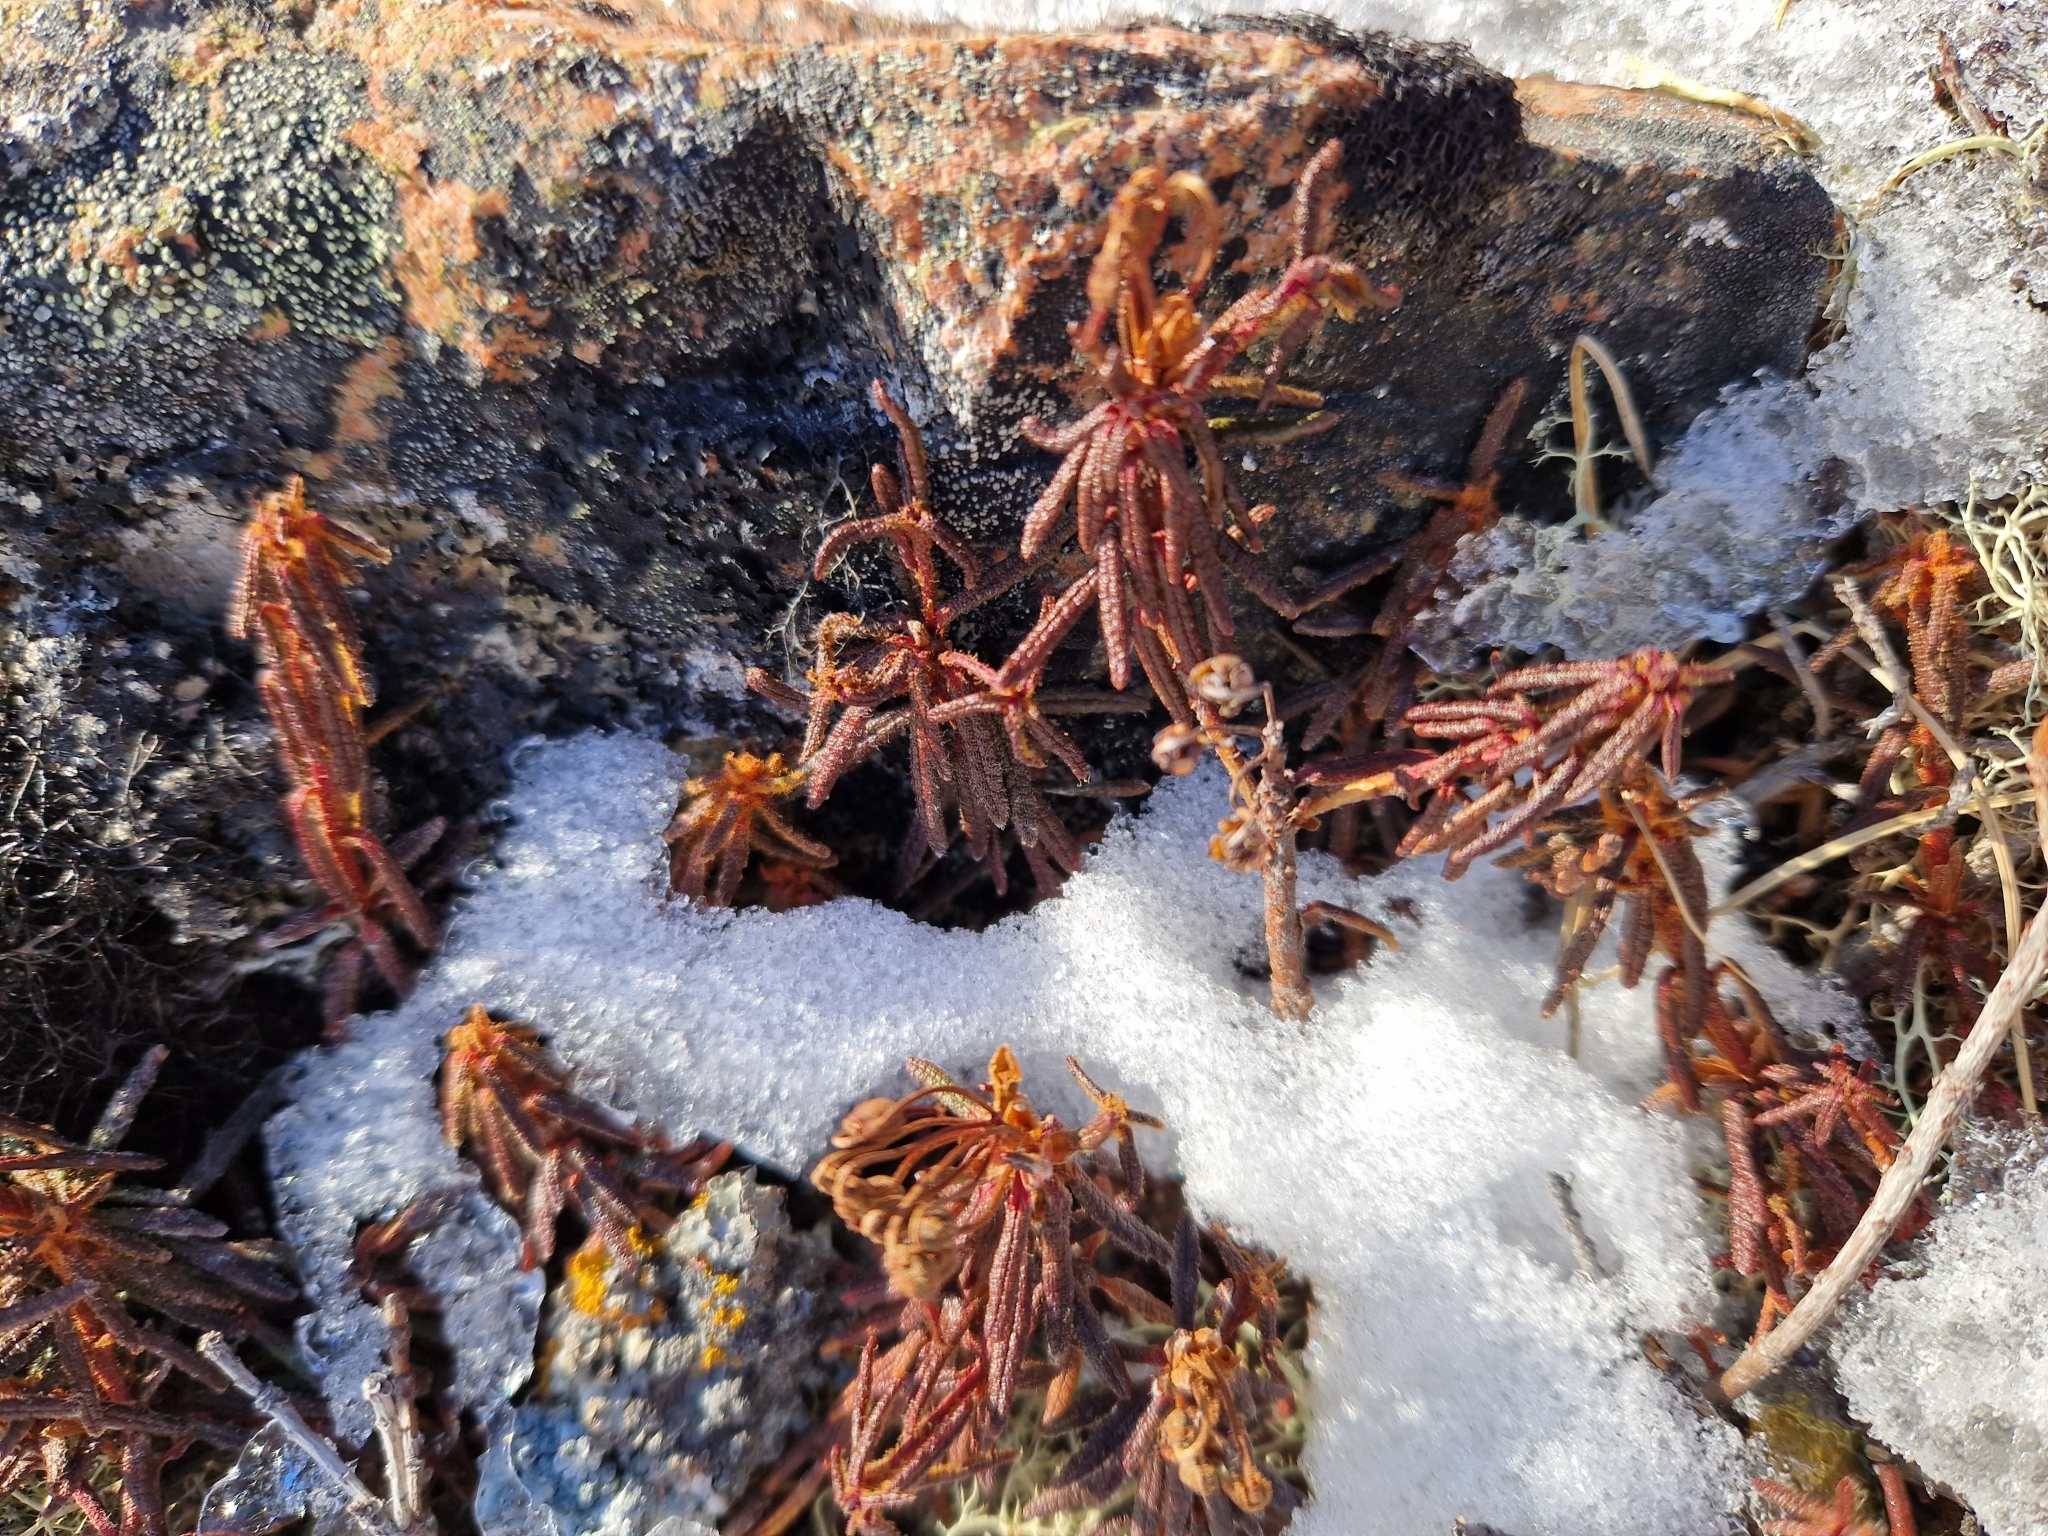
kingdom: Plantae
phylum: Tracheophyta
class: Magnoliopsida
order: Ericales
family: Ericaceae
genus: Rhododendron
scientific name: Rhododendron tomentosum
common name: Marsh labrador tea
